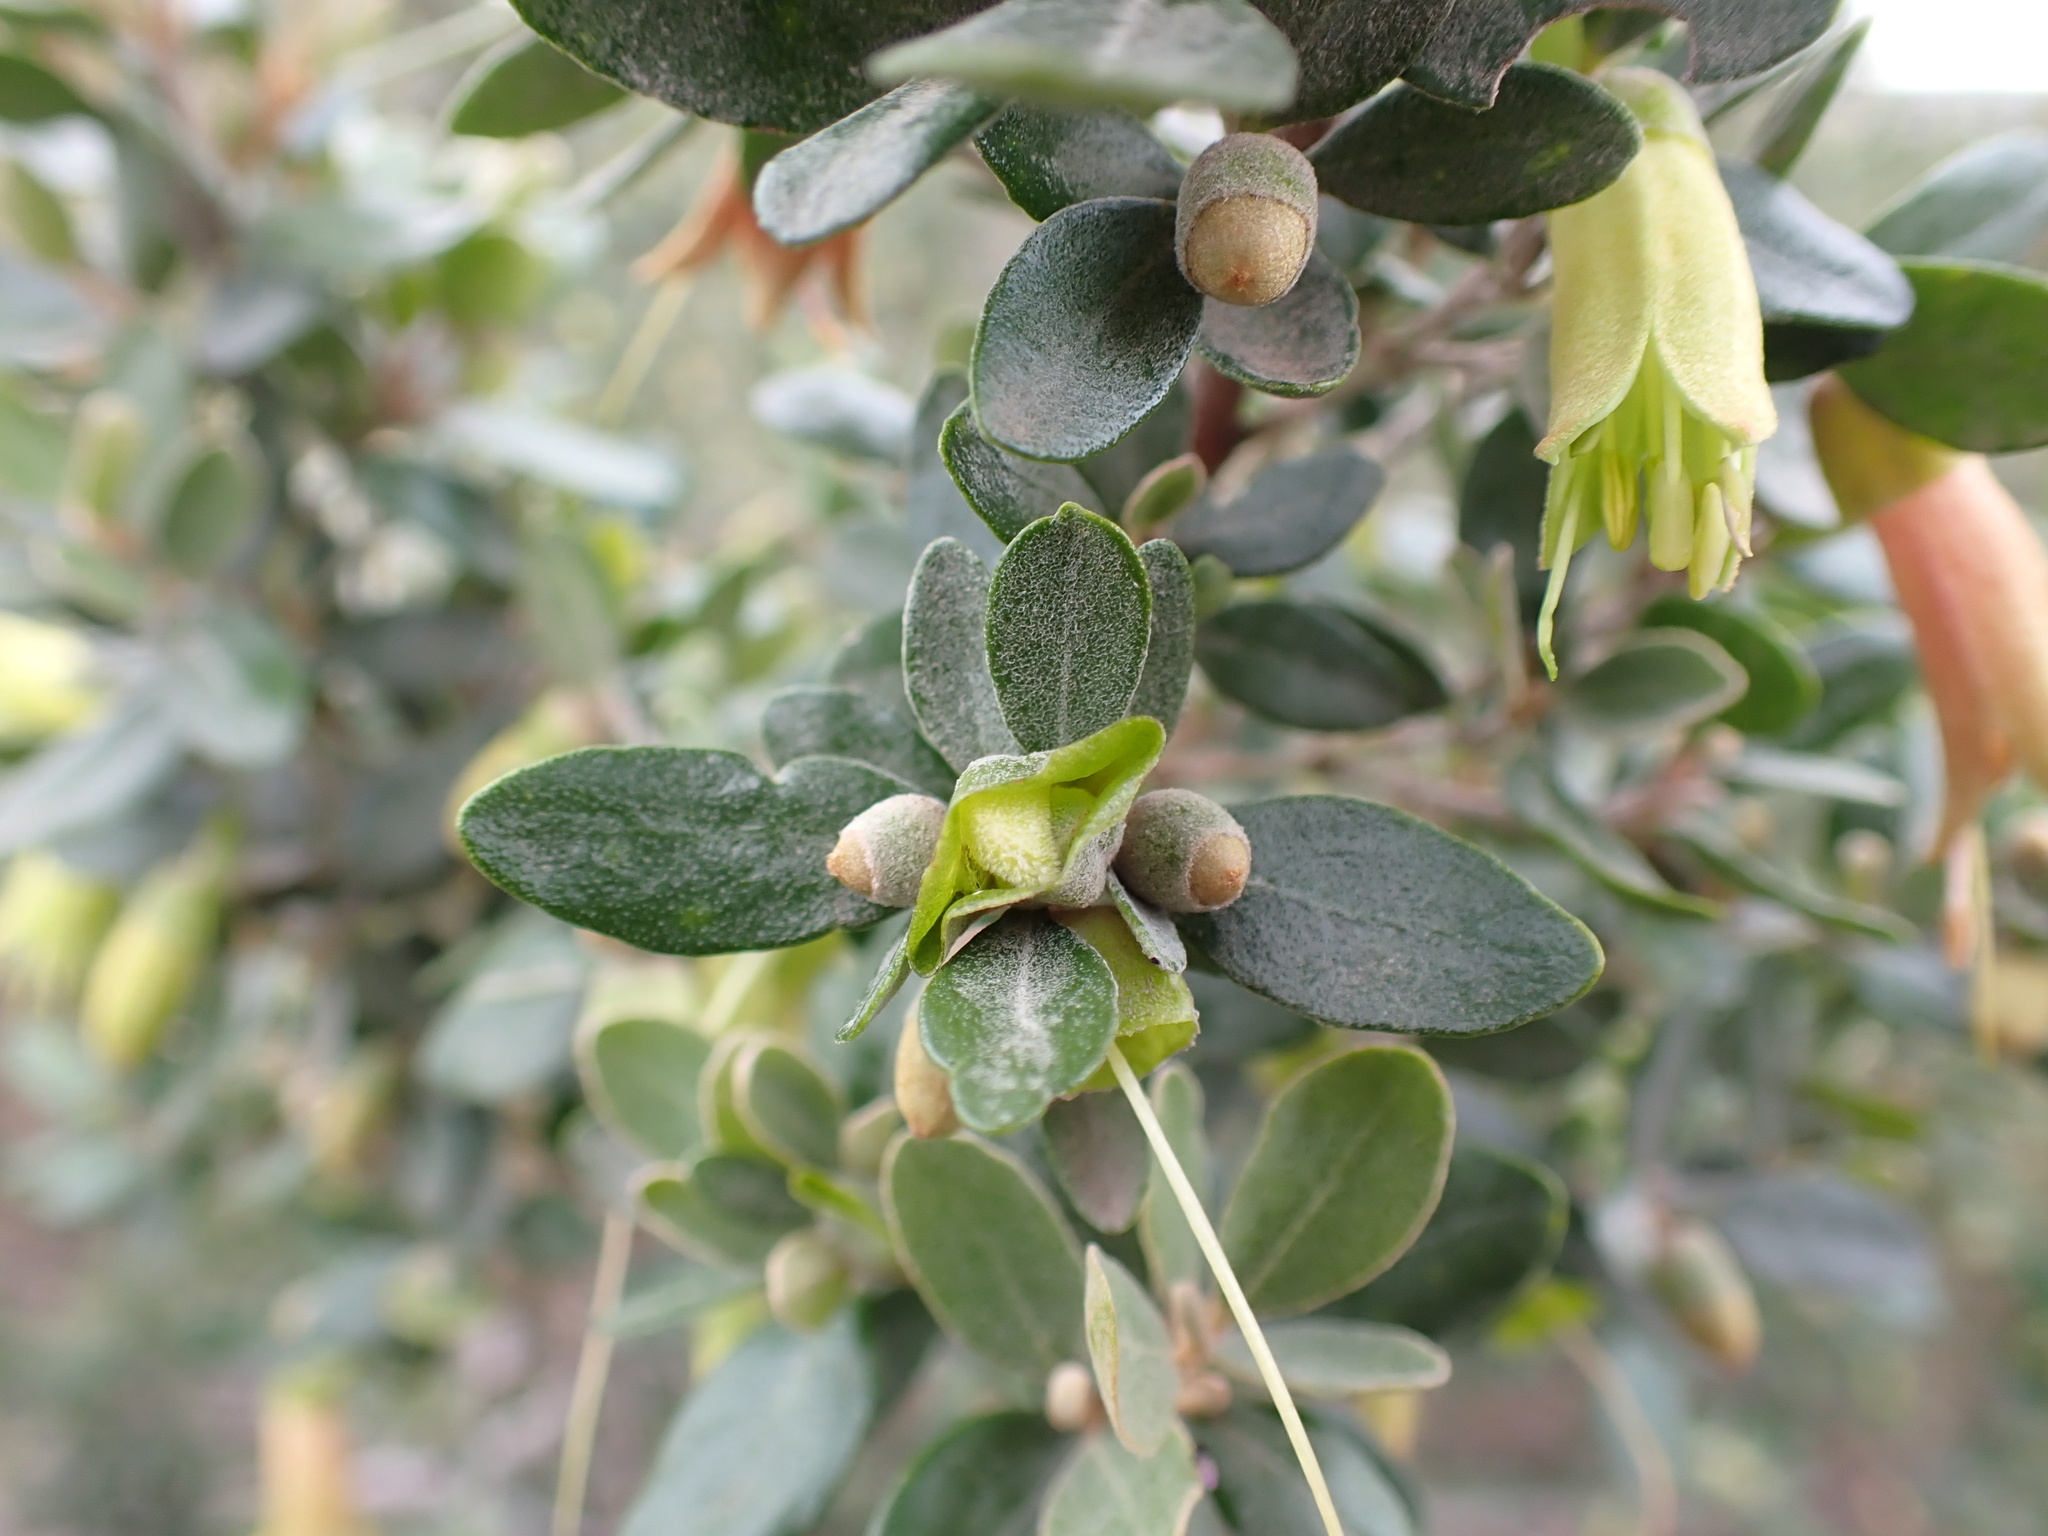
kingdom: Plantae
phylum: Tracheophyta
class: Magnoliopsida
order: Sapindales
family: Rutaceae
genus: Correa
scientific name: Correa glabra
